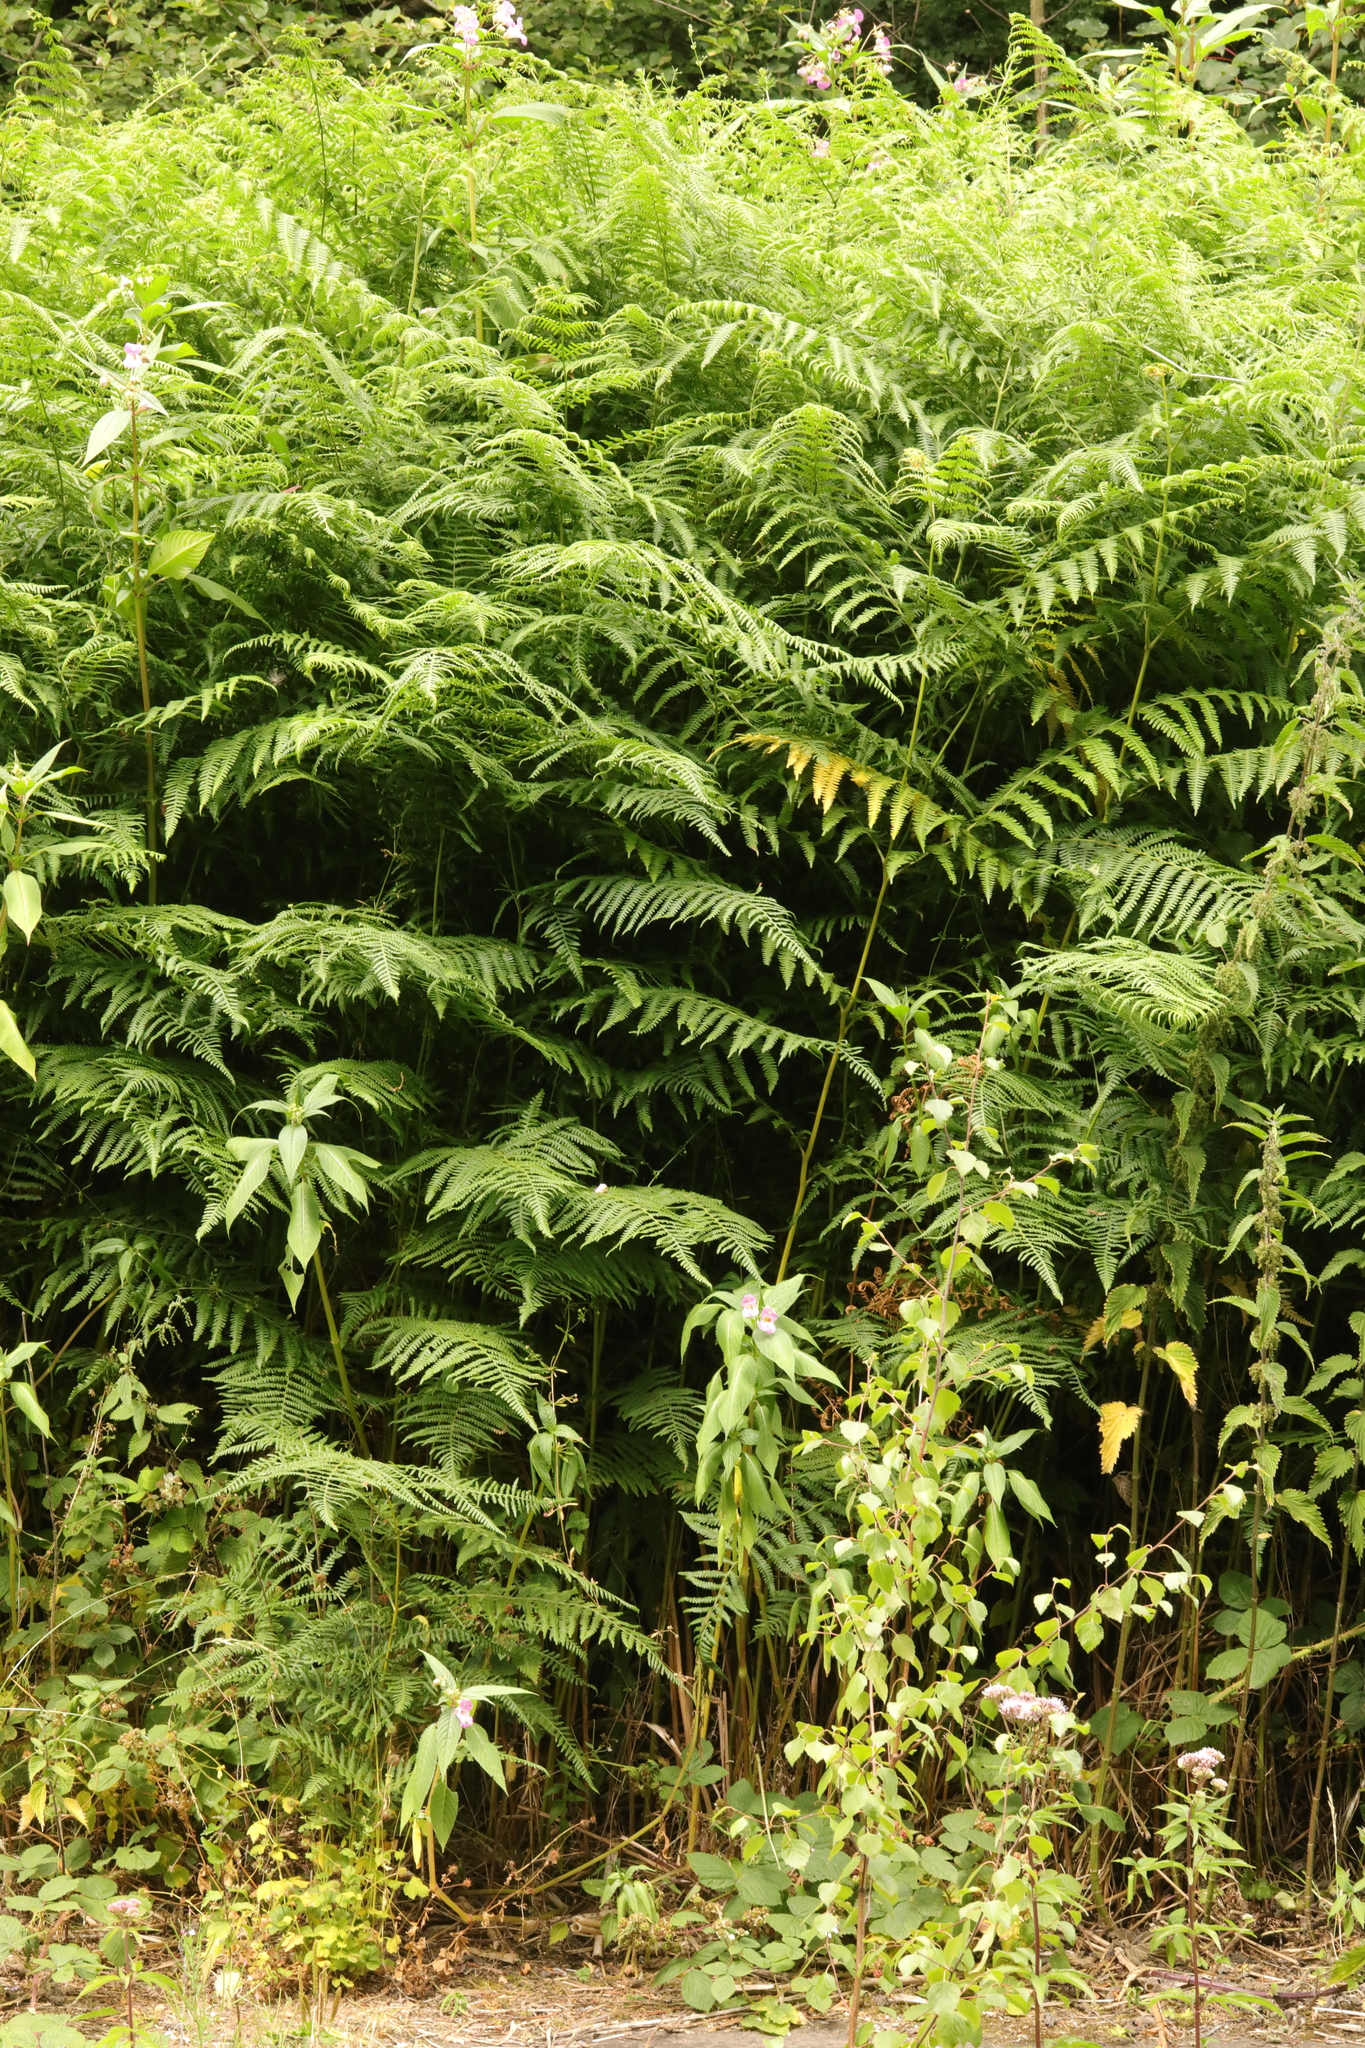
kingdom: Plantae
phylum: Tracheophyta
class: Polypodiopsida
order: Polypodiales
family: Dennstaedtiaceae
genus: Pteridium
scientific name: Pteridium aquilinum
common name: Bracken
